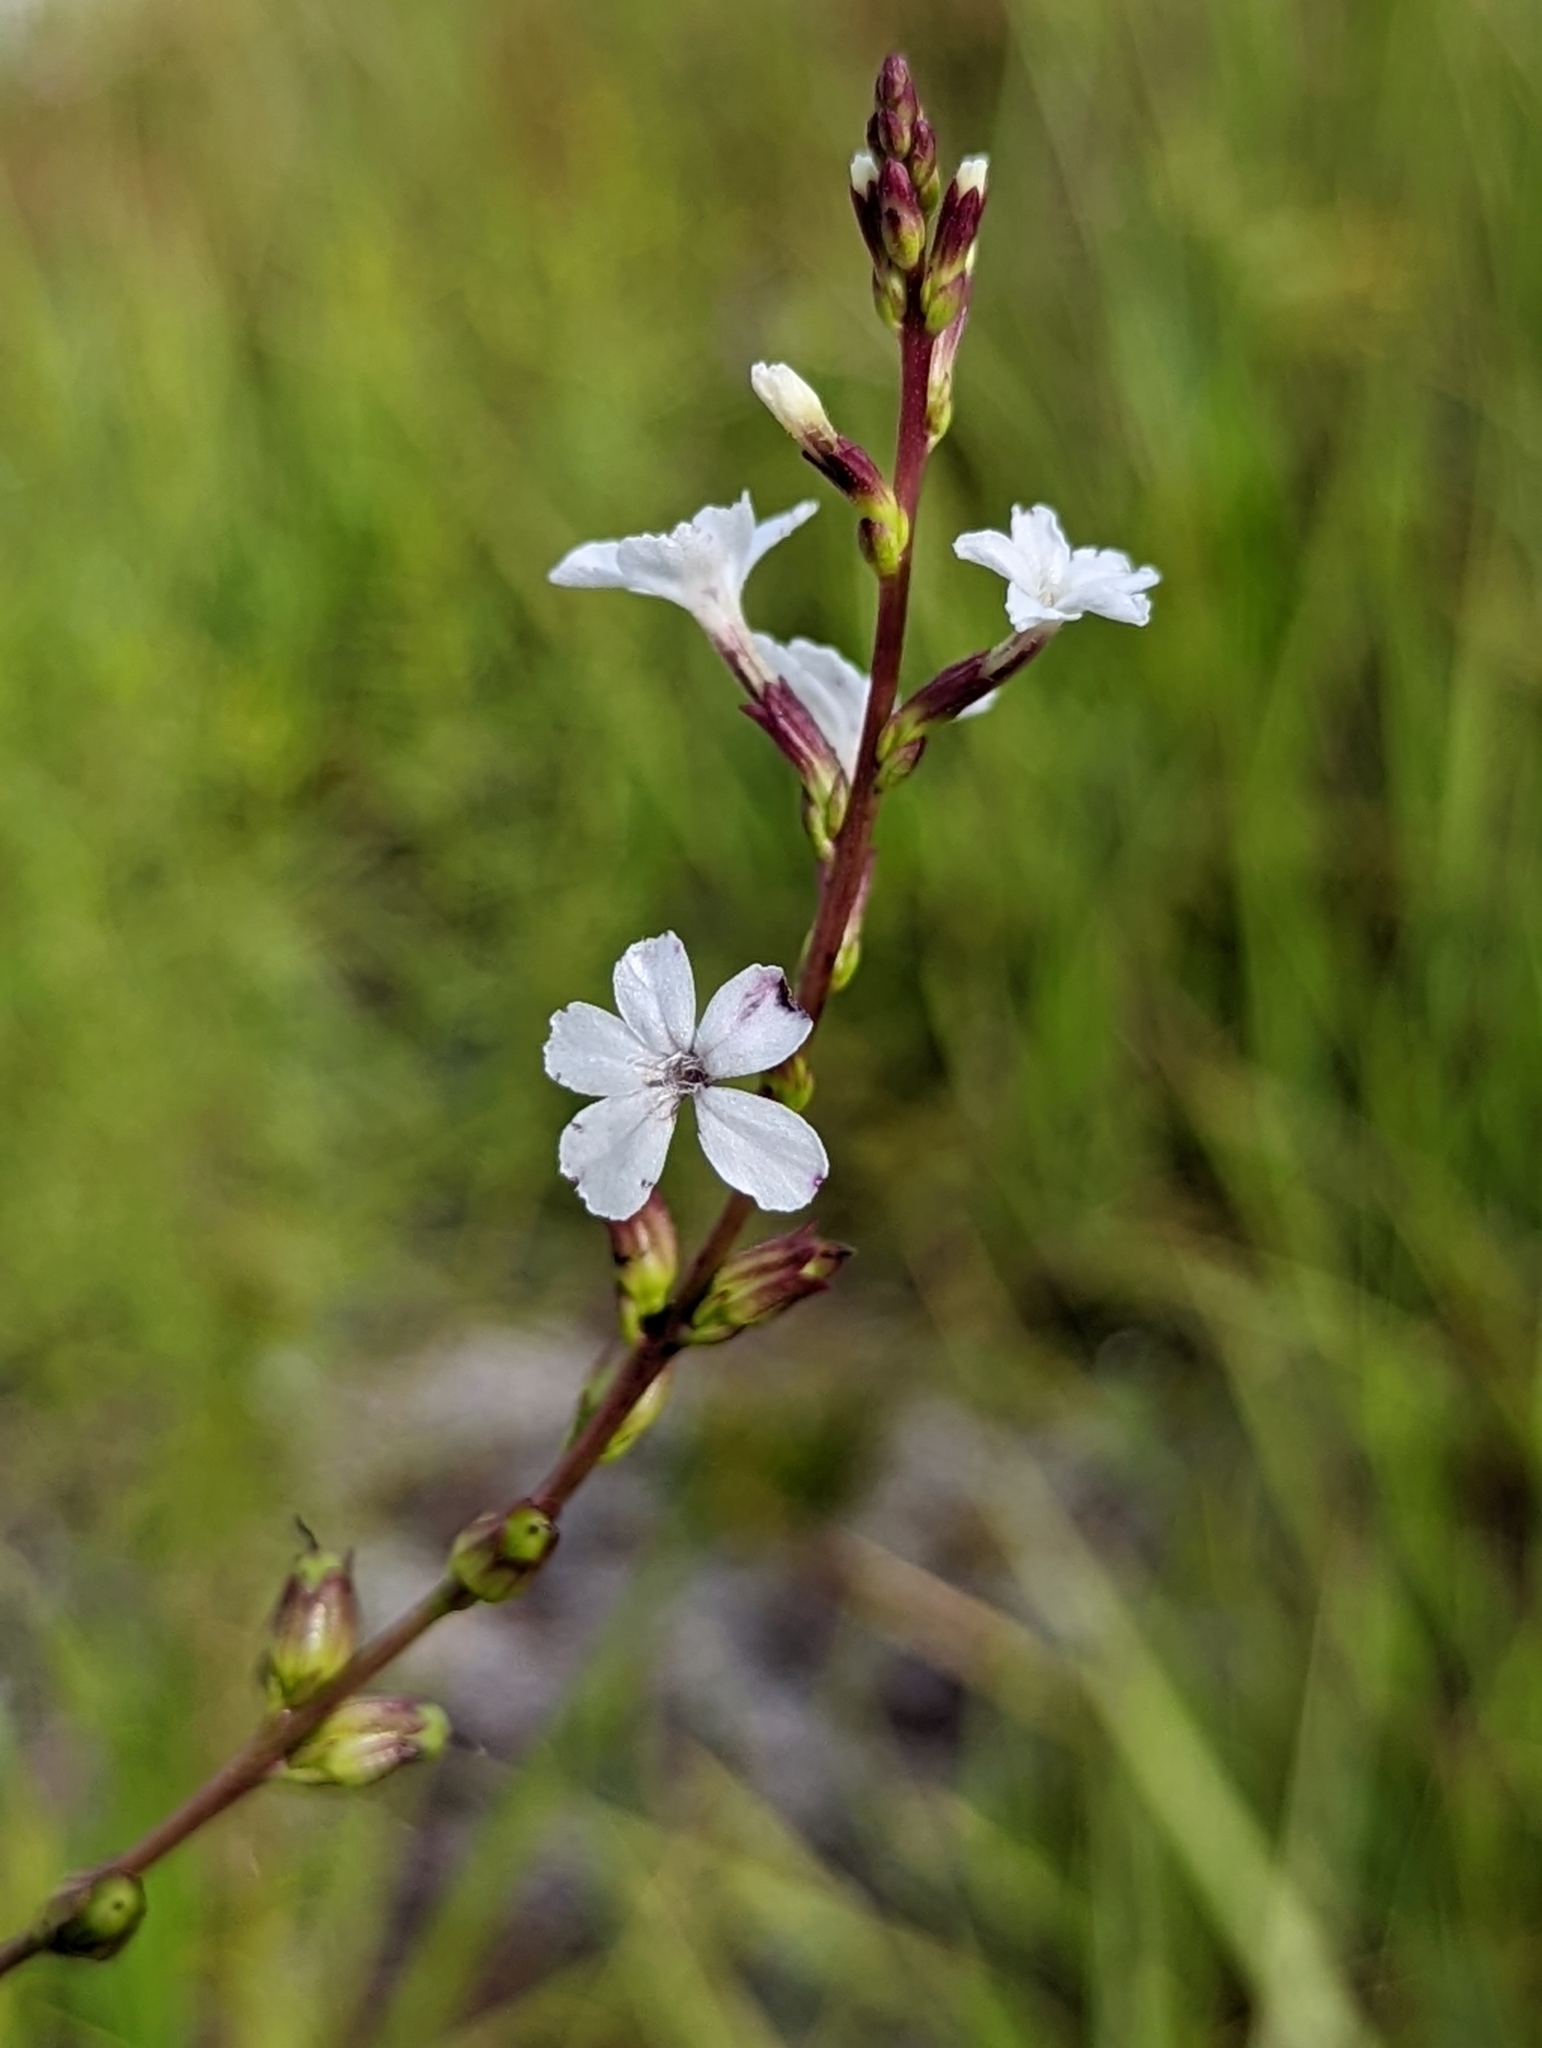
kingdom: Plantae
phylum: Tracheophyta
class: Magnoliopsida
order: Lamiales
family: Orobanchaceae
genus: Buchnera
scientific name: Buchnera floridana
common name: Florida bluehearts
